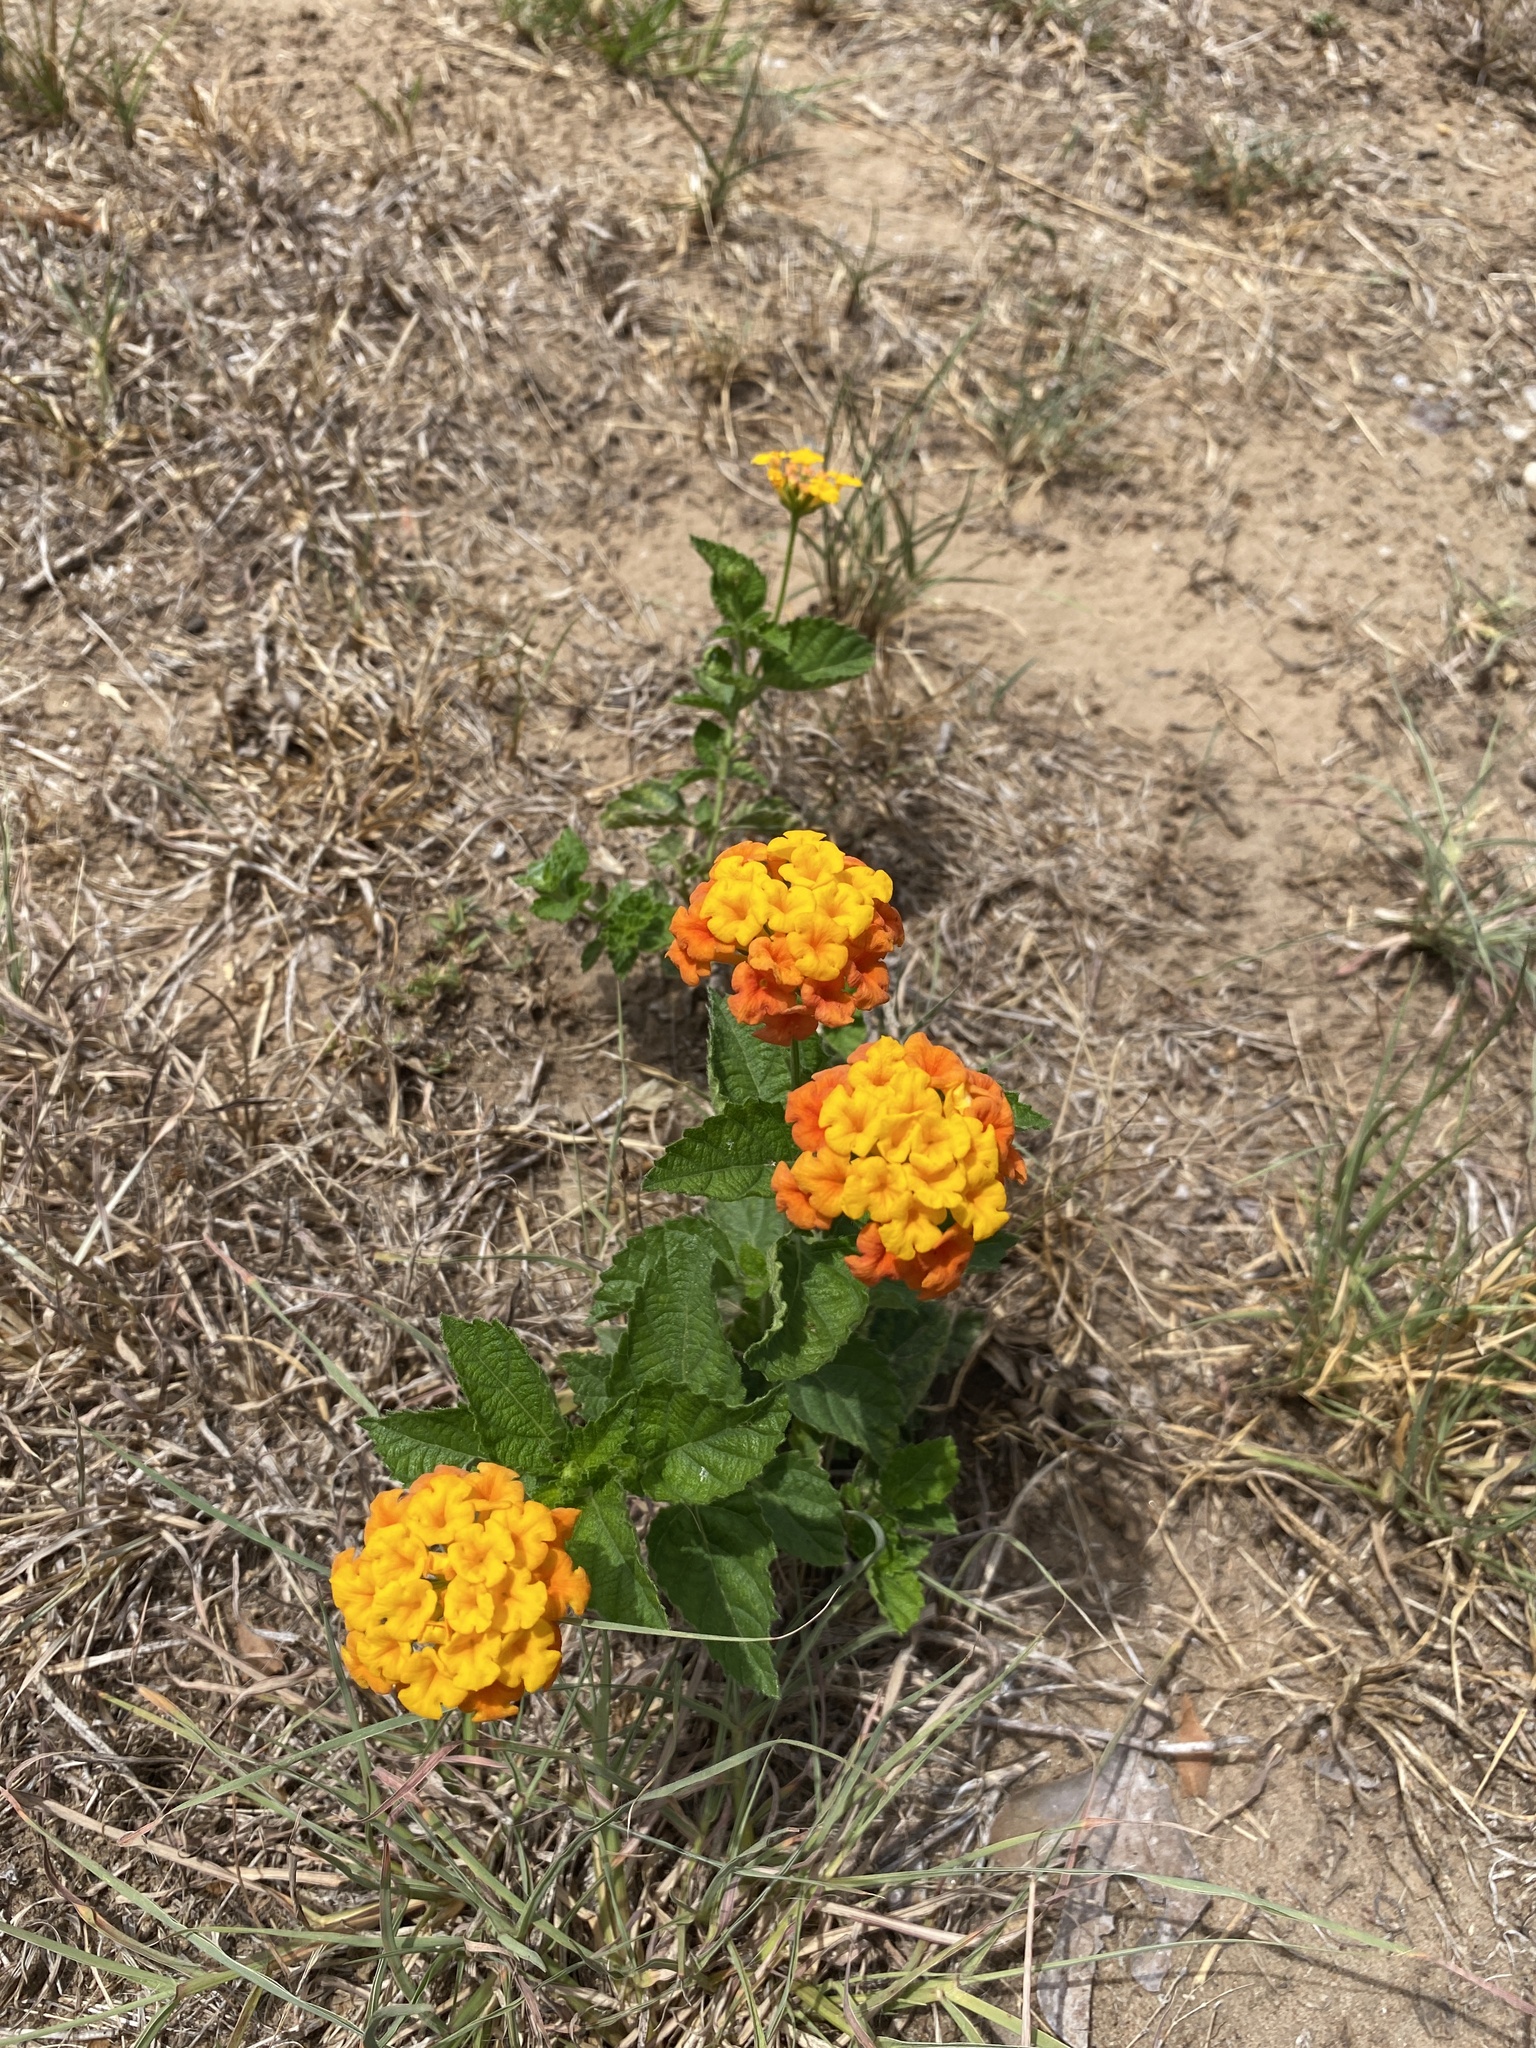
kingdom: Plantae
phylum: Tracheophyta
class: Magnoliopsida
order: Lamiales
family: Verbenaceae
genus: Lantana
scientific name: Lantana urticoides
